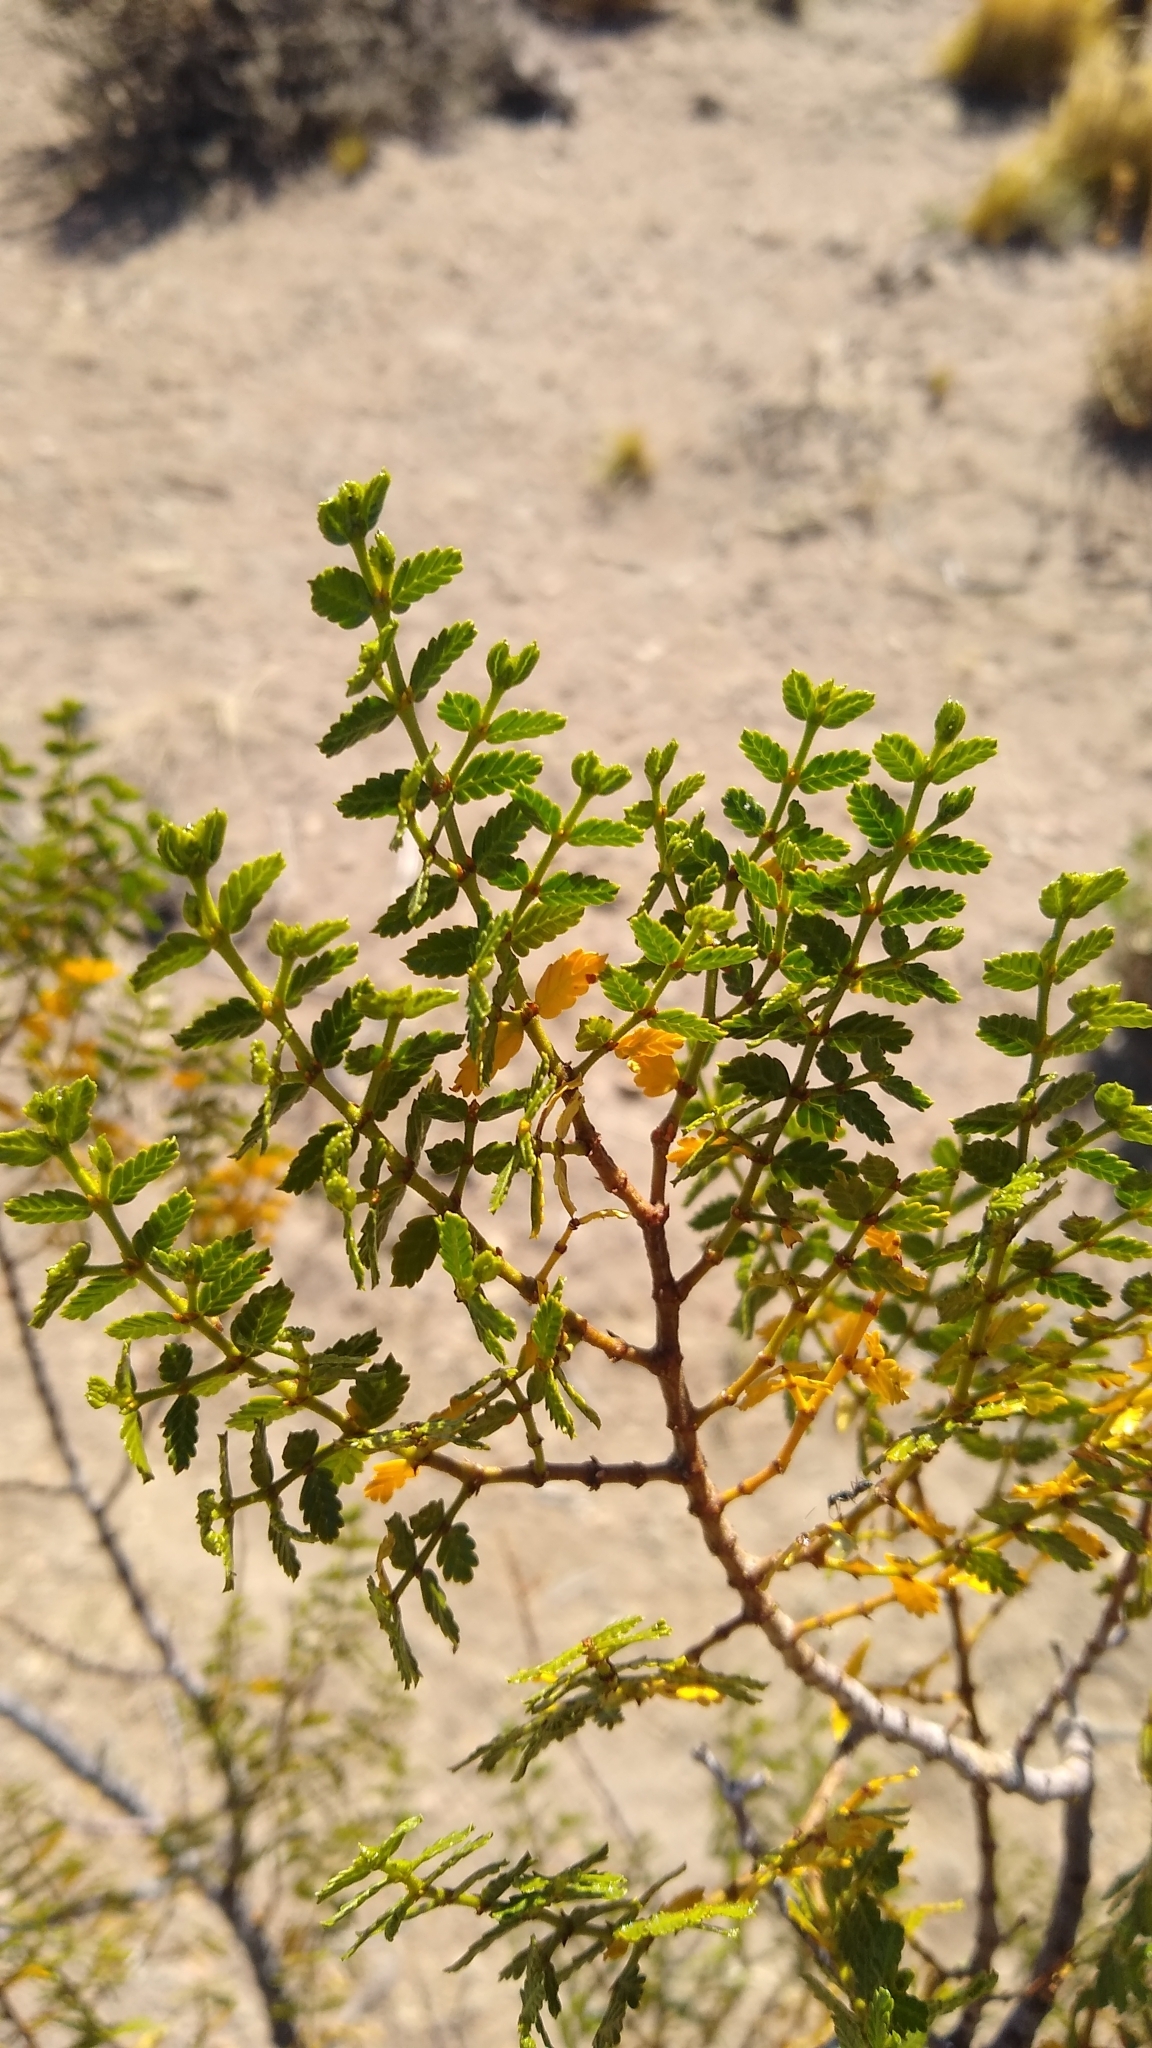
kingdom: Plantae
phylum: Tracheophyta
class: Magnoliopsida
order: Zygophyllales
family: Zygophyllaceae
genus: Larrea
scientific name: Larrea nitida
